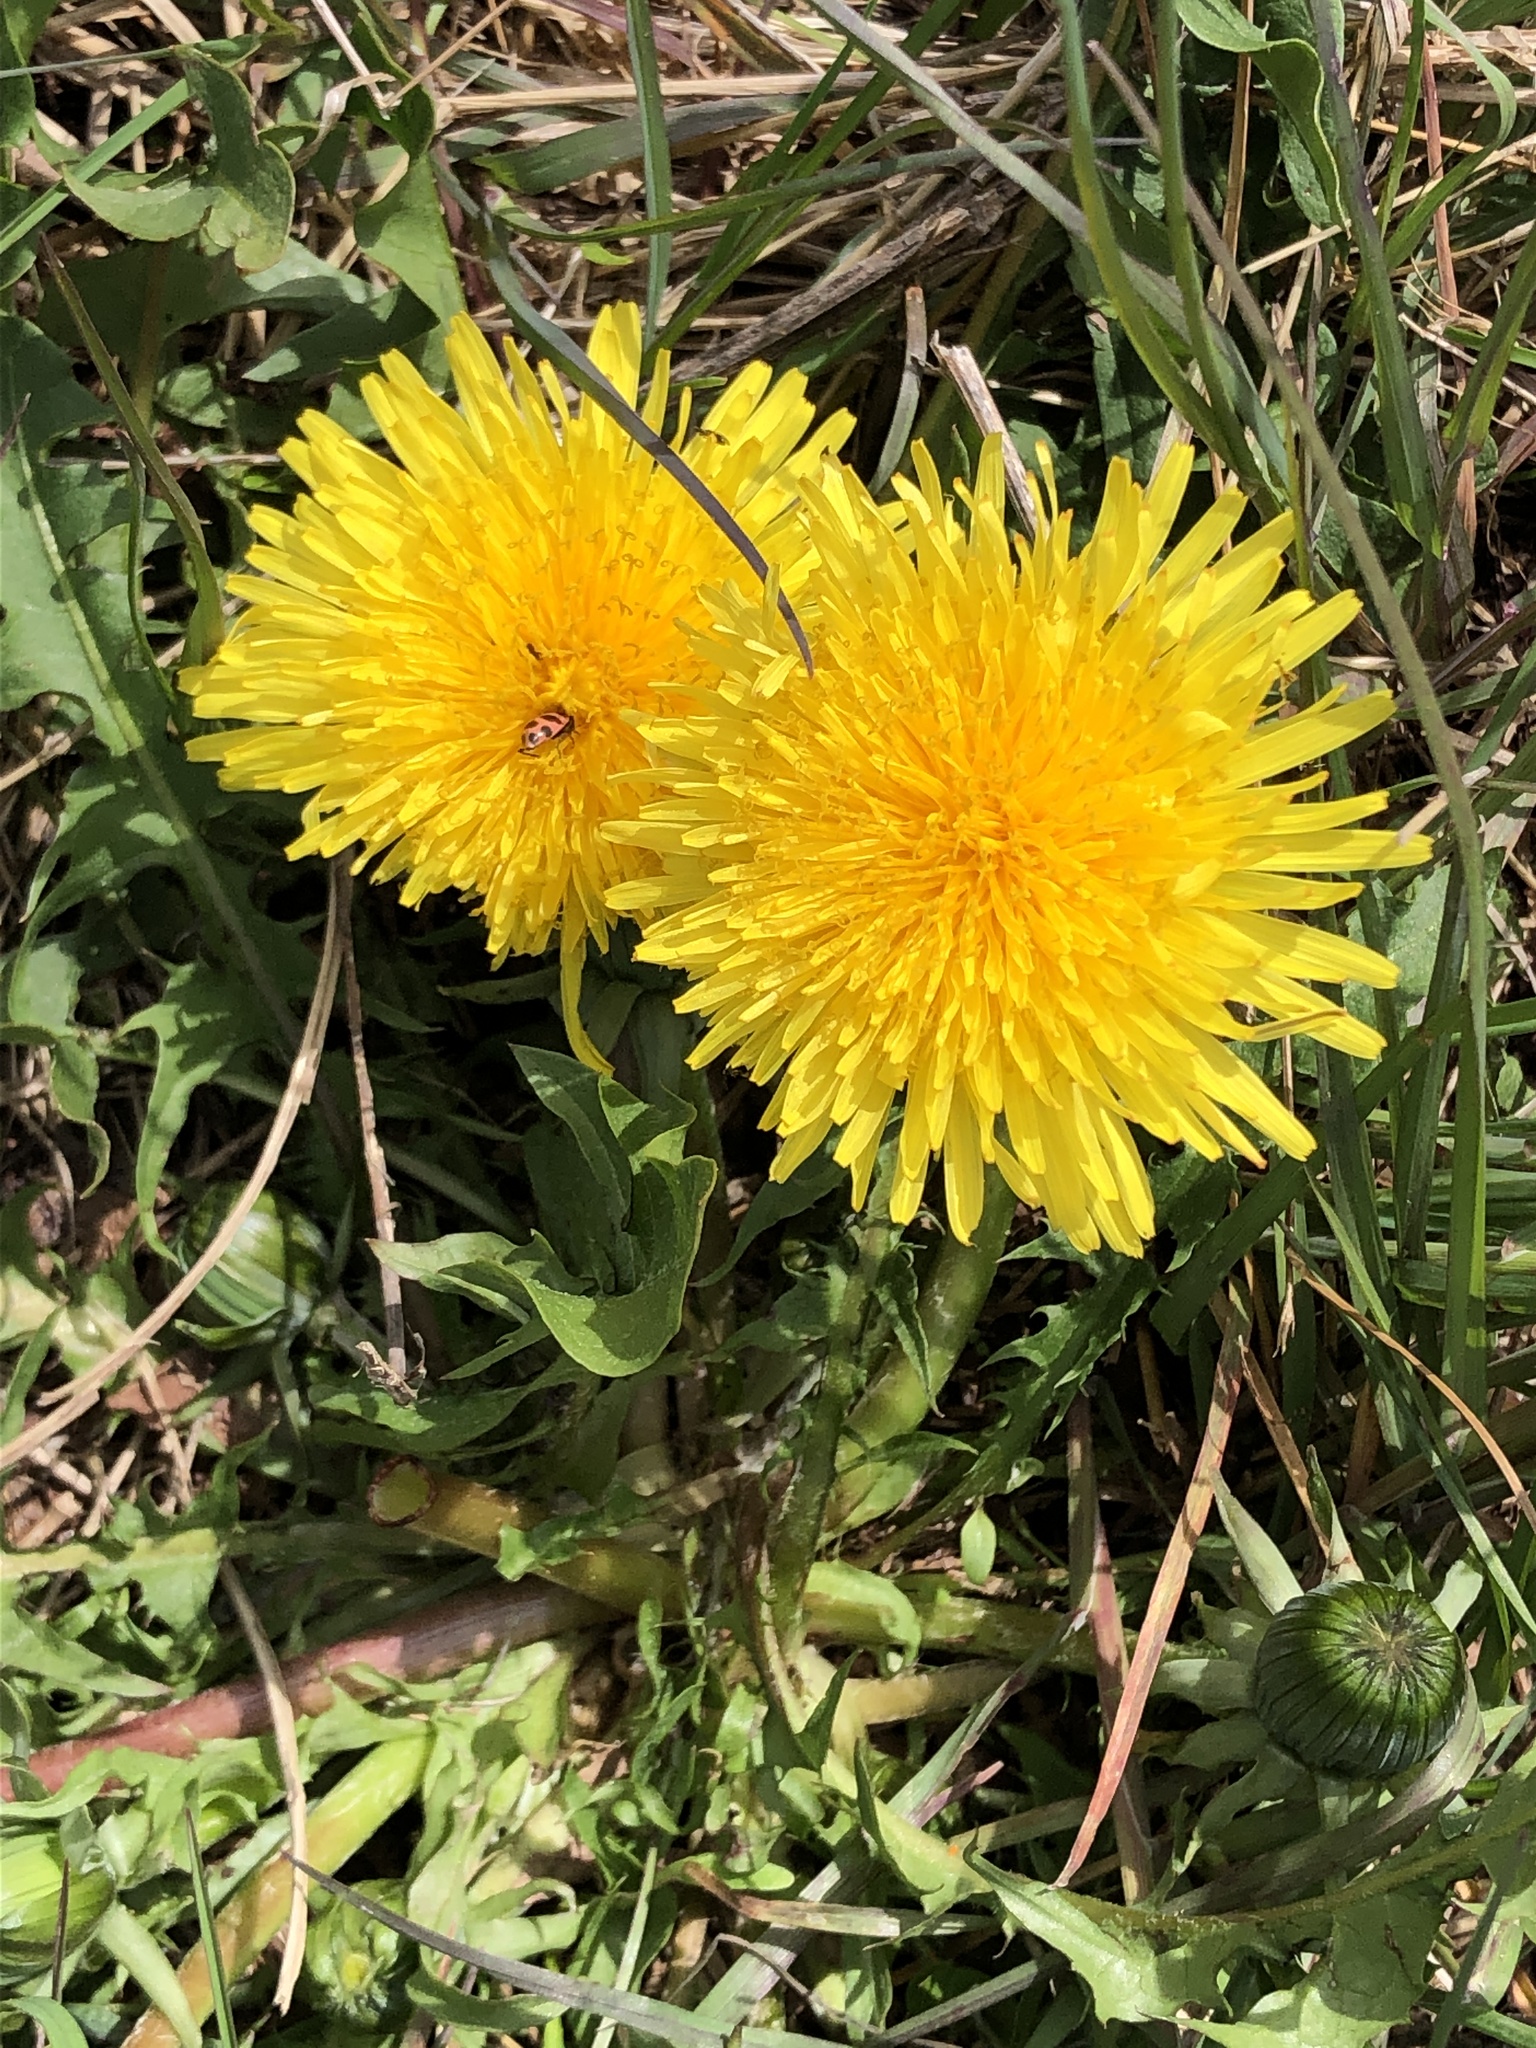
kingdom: Plantae
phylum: Tracheophyta
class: Magnoliopsida
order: Asterales
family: Asteraceae
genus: Taraxacum
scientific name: Taraxacum officinale
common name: Common dandelion
